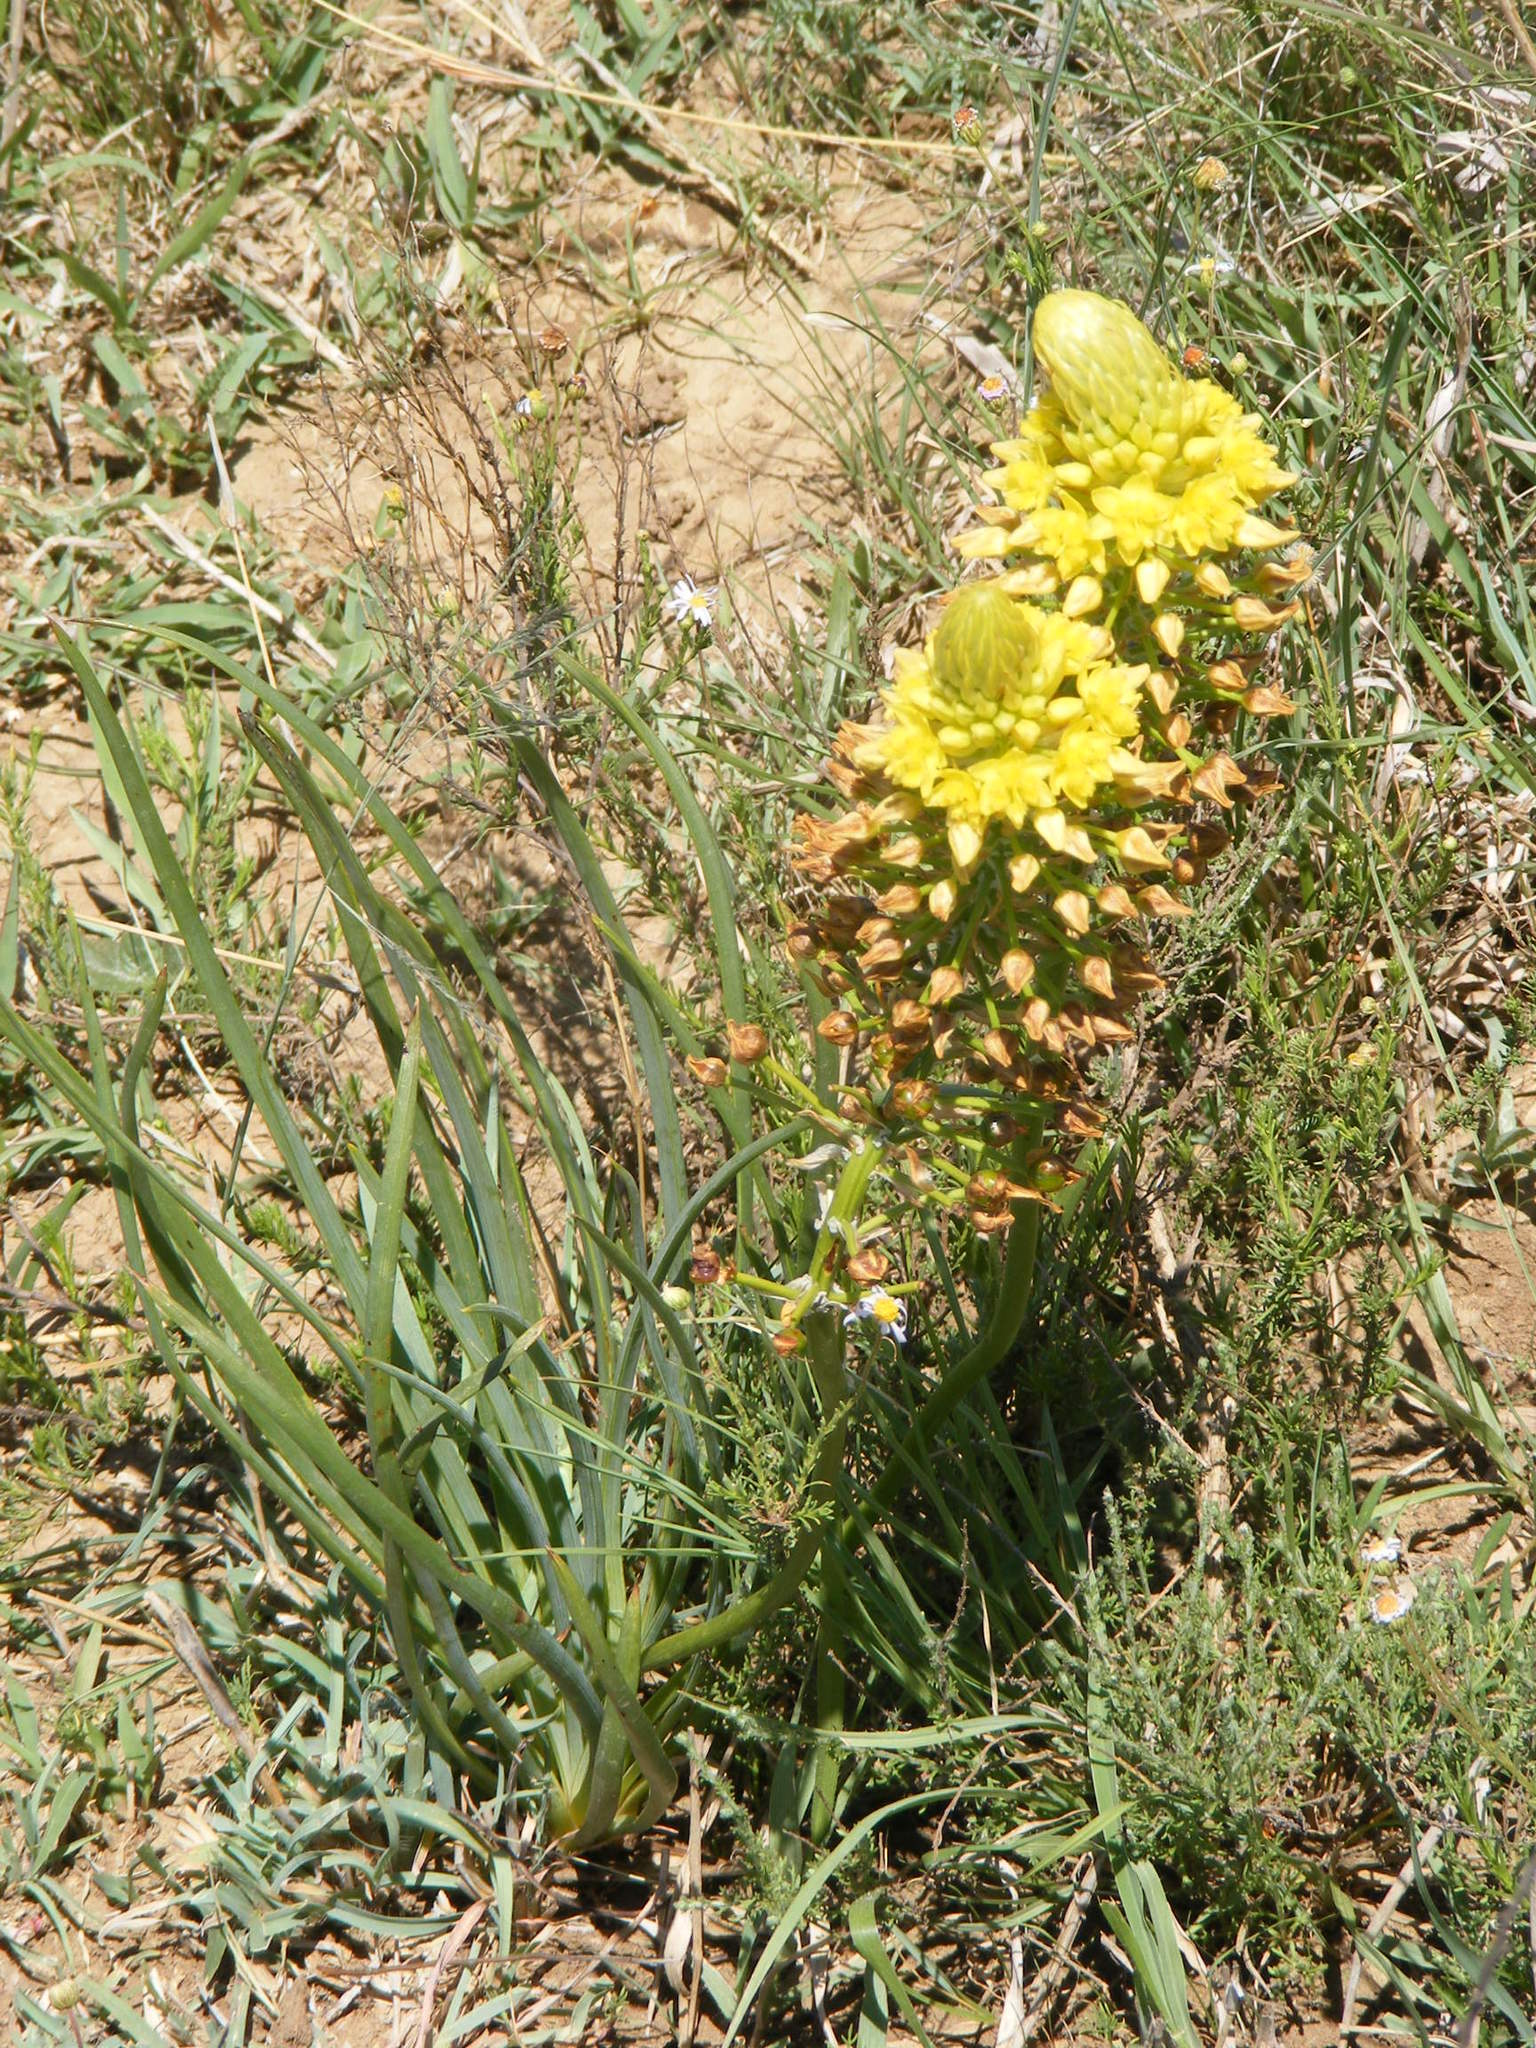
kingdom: Plantae
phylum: Tracheophyta
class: Liliopsida
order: Asparagales
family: Asphodelaceae
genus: Bulbine
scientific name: Bulbine abyssinica
